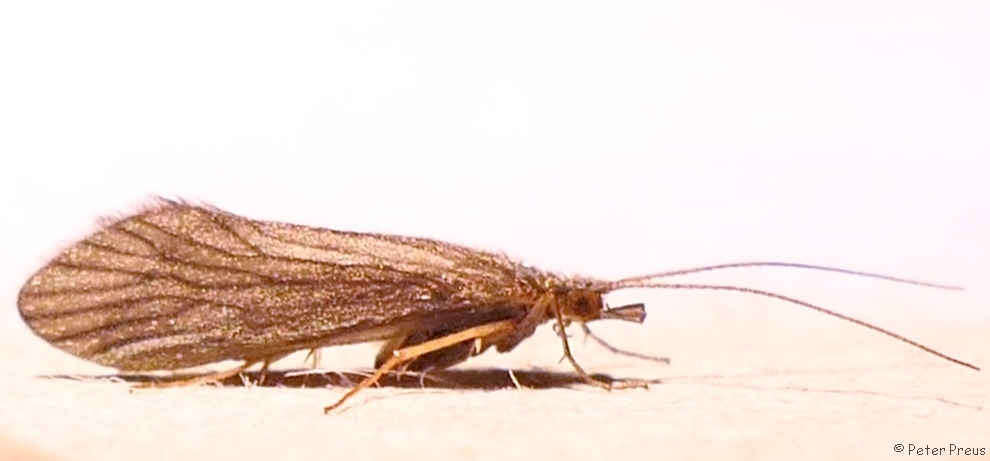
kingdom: Animalia
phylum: Arthropoda
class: Insecta
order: Trichoptera
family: Psychomyiidae
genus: Tinodes
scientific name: Tinodes waeneri
